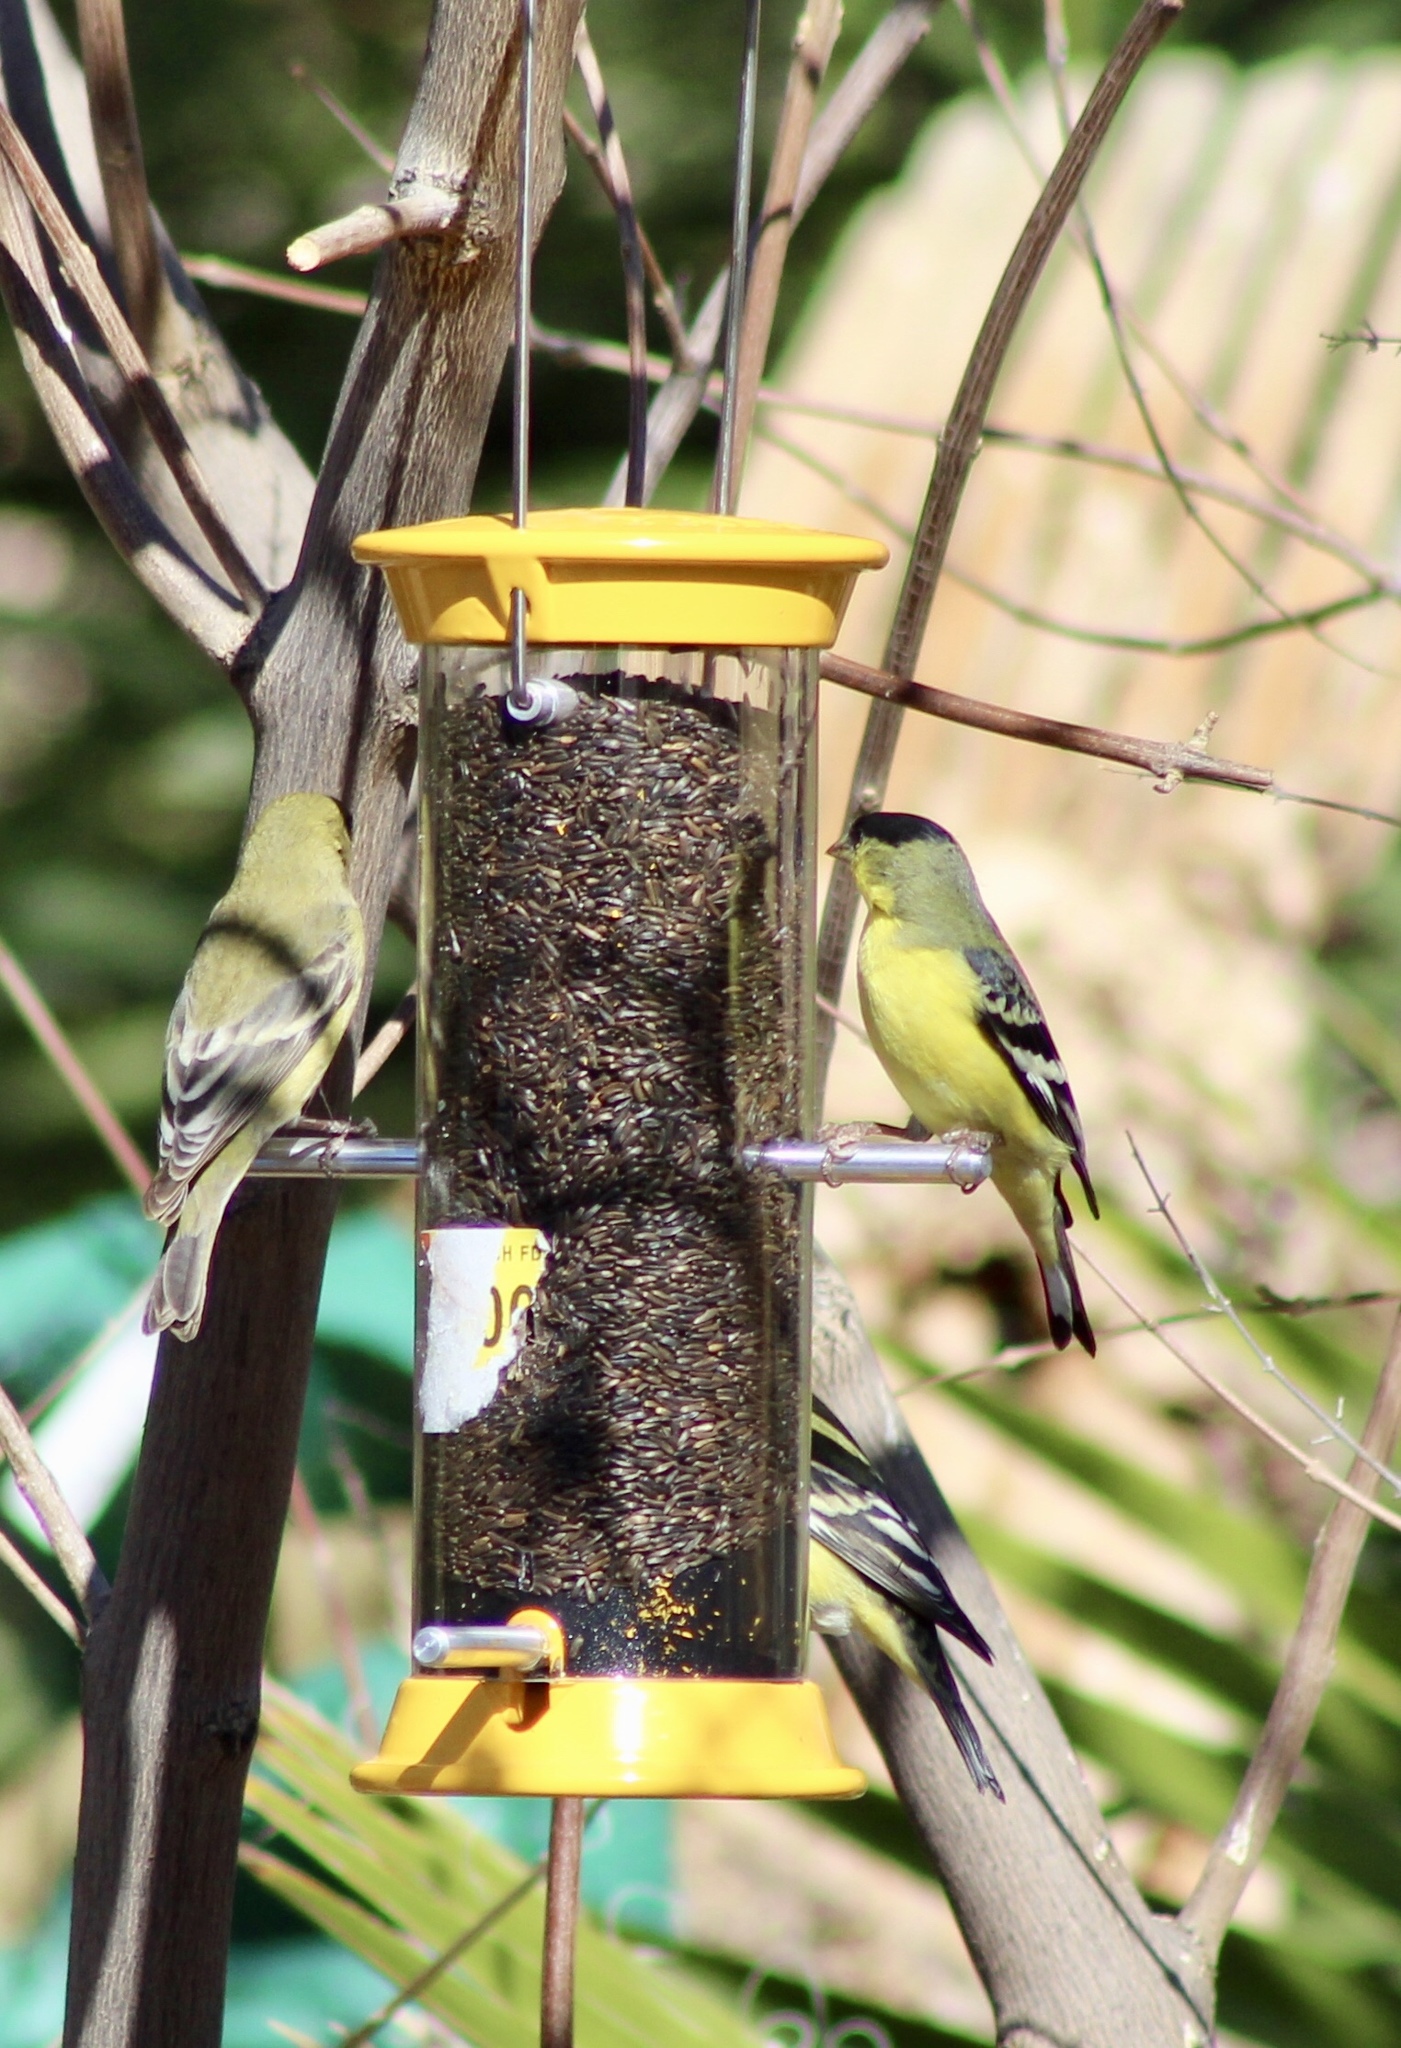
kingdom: Animalia
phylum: Chordata
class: Aves
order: Passeriformes
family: Fringillidae
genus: Spinus
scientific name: Spinus psaltria
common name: Lesser goldfinch
